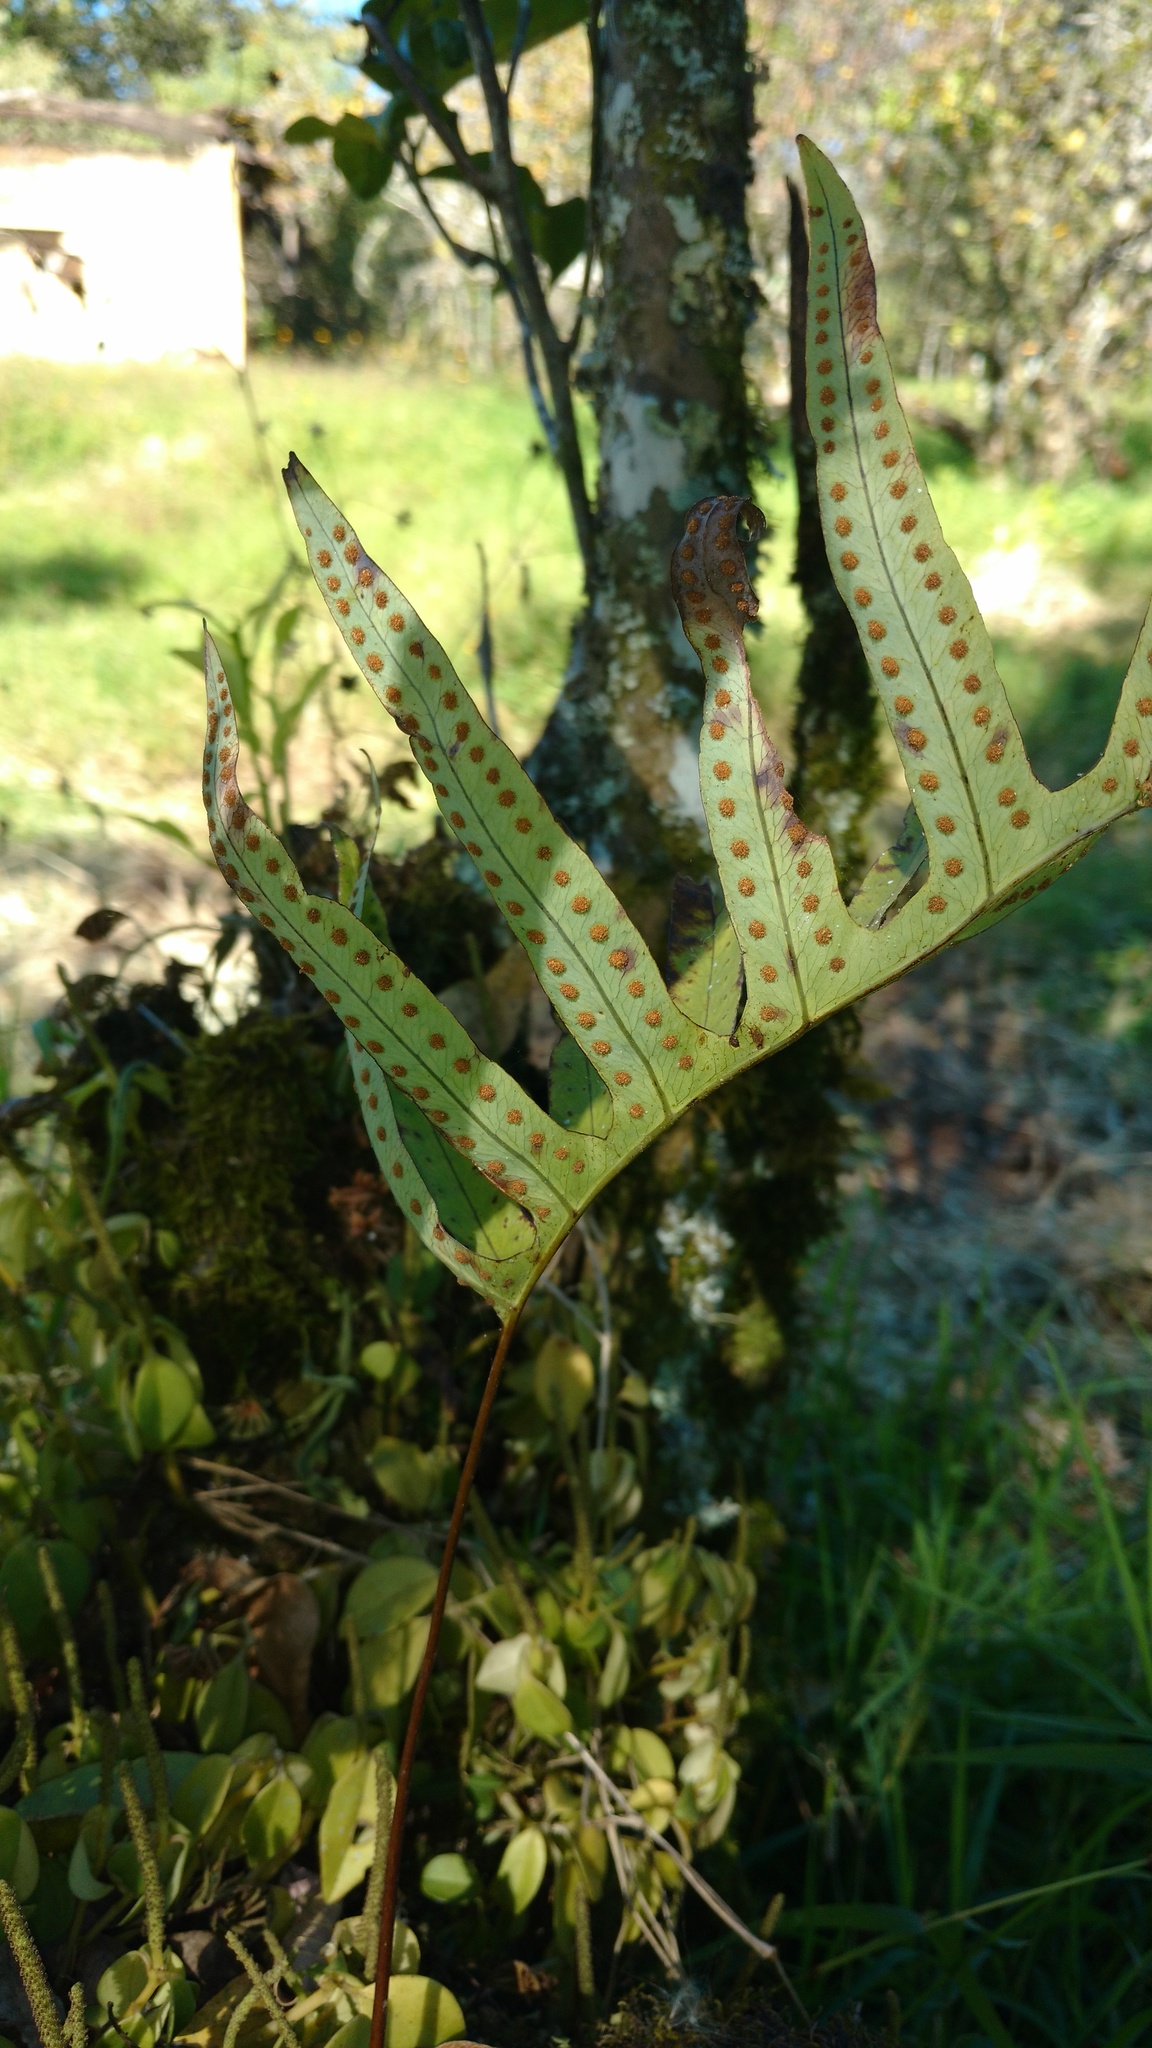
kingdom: Plantae
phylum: Tracheophyta
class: Polypodiopsida
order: Polypodiales
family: Polypodiaceae
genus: Phlebodium
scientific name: Phlebodium pseudoaureum
